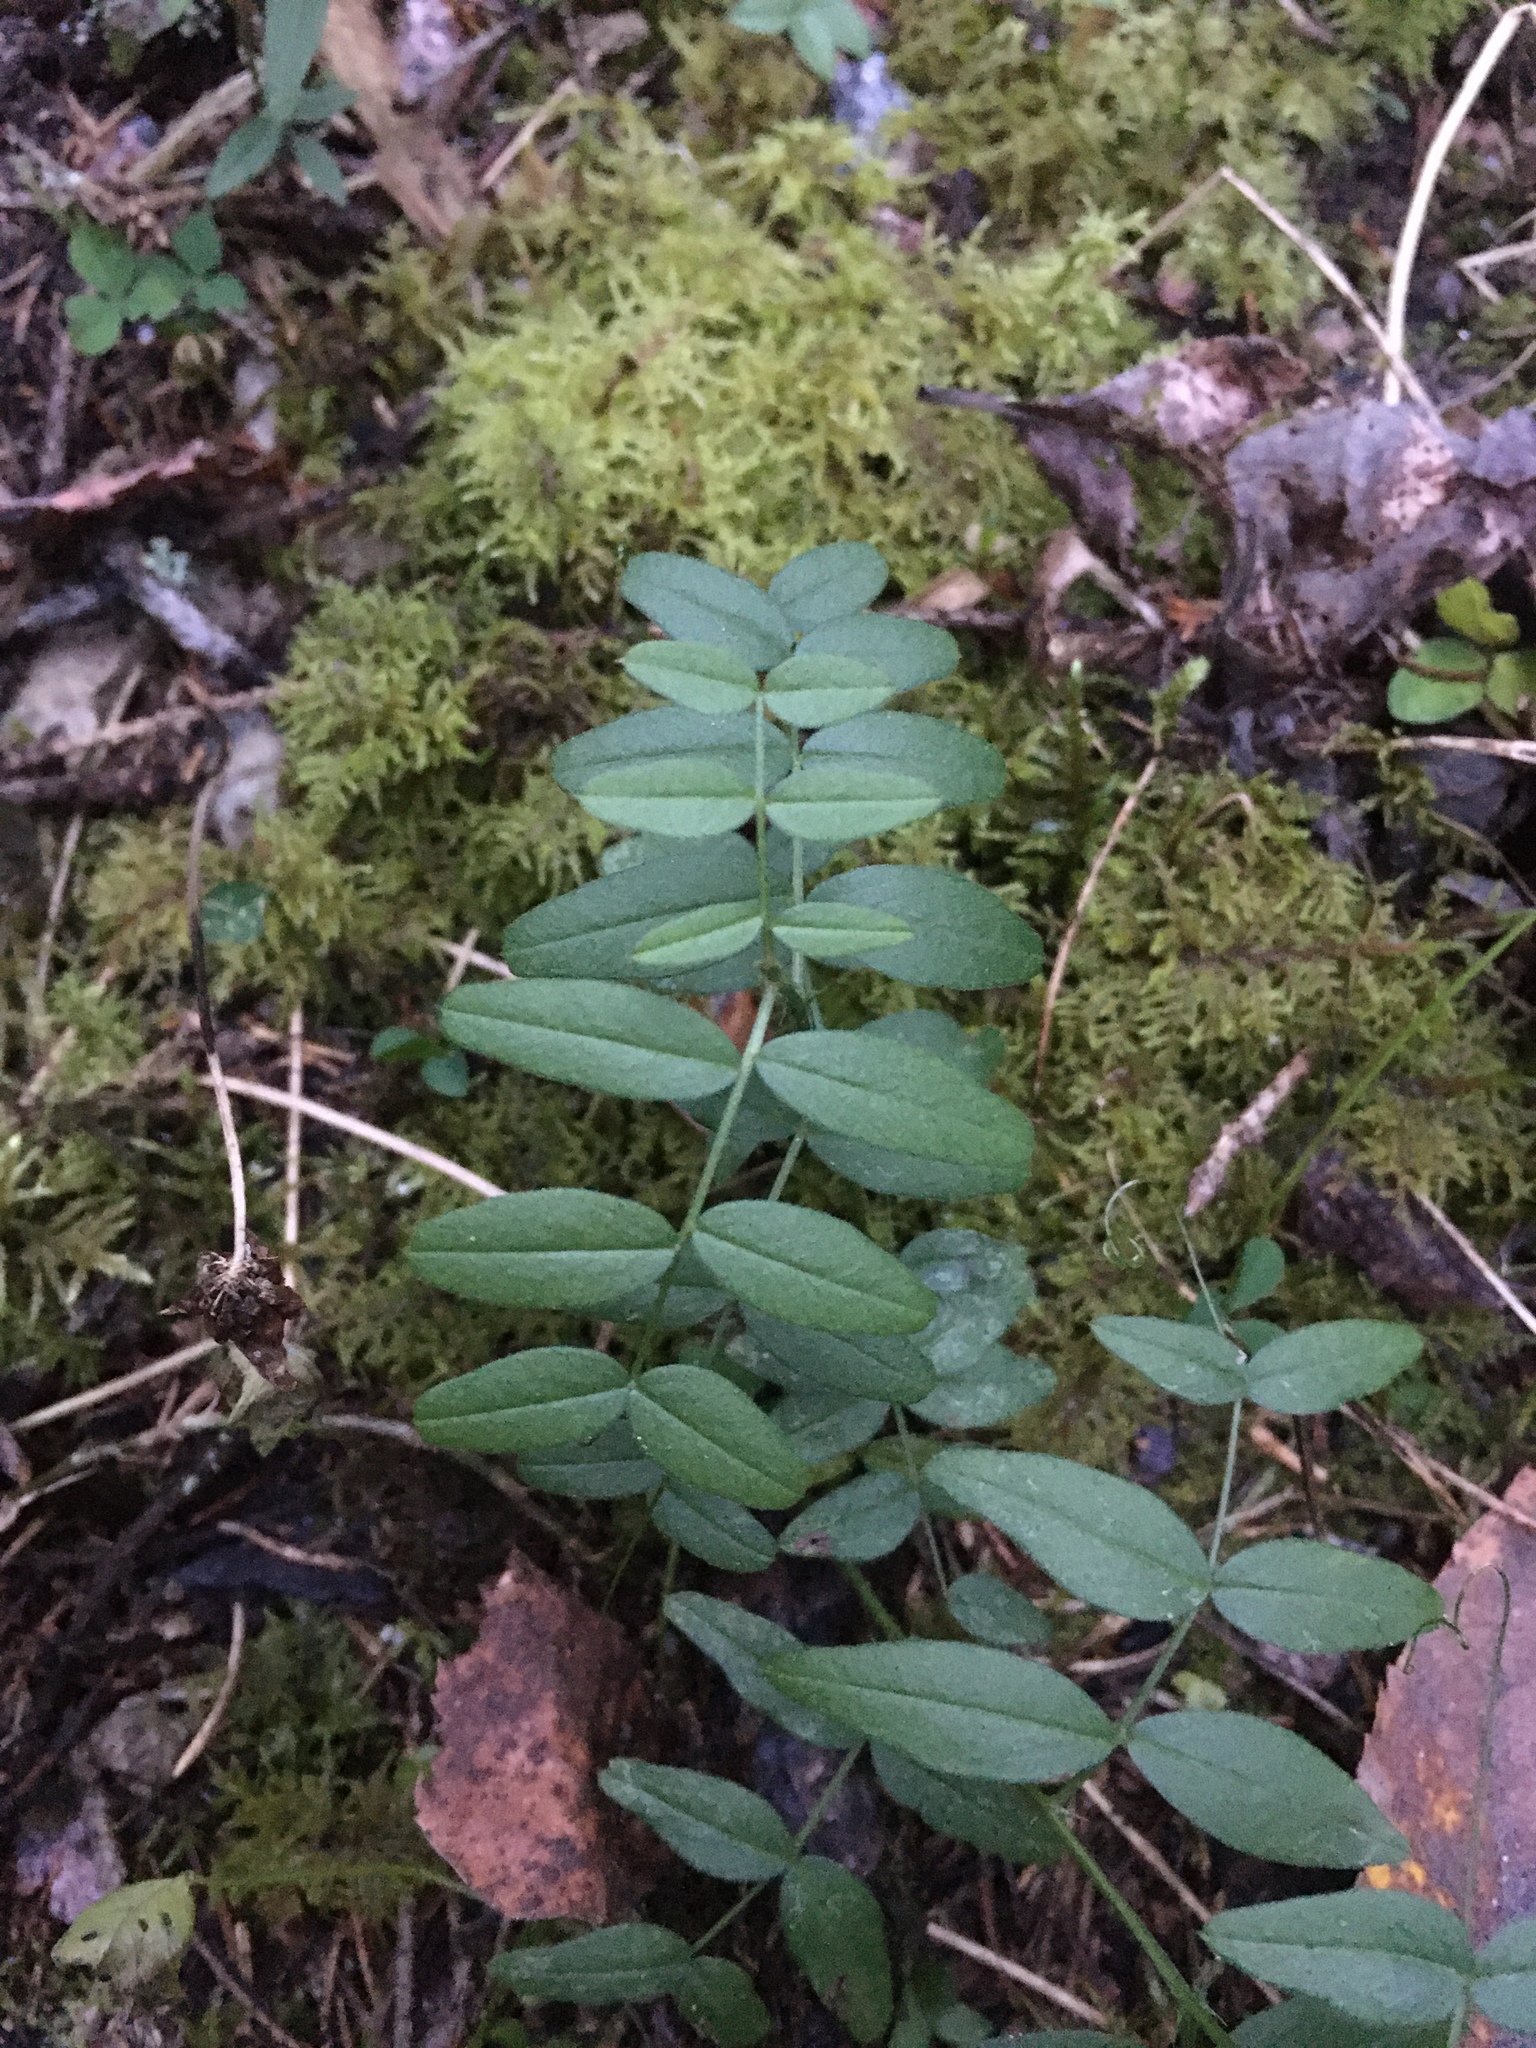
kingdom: Plantae
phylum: Tracheophyta
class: Magnoliopsida
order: Fabales
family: Fabaceae
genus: Vicia
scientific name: Vicia sepium
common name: Bush vetch
